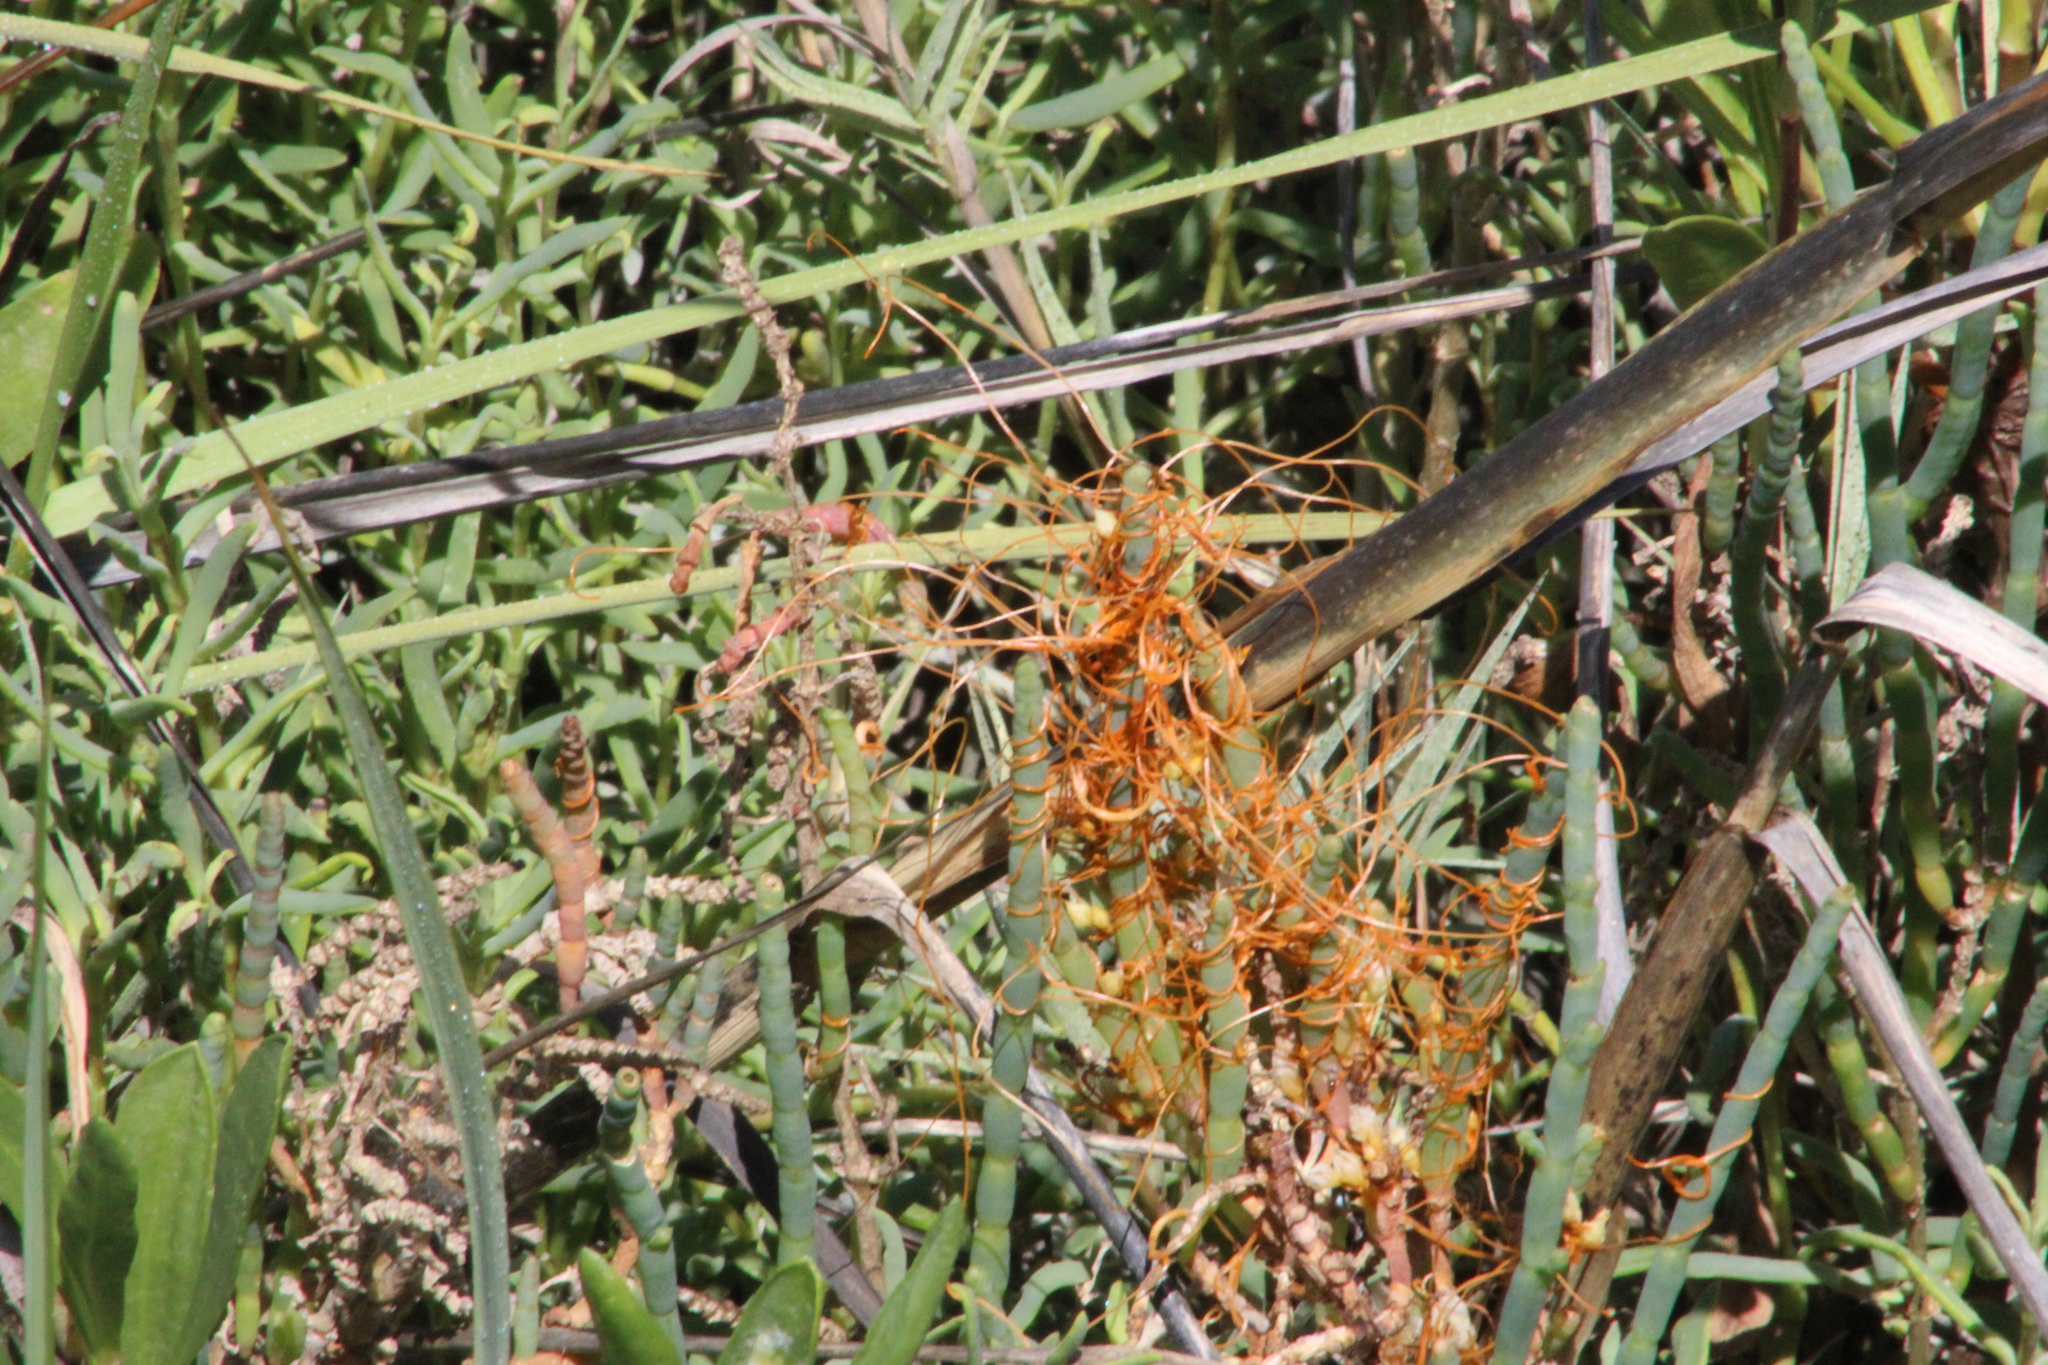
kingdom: Plantae
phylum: Tracheophyta
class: Magnoliopsida
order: Solanales
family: Convolvulaceae
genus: Cuscuta
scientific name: Cuscuta pacifica
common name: Large saltmarsh dodder
